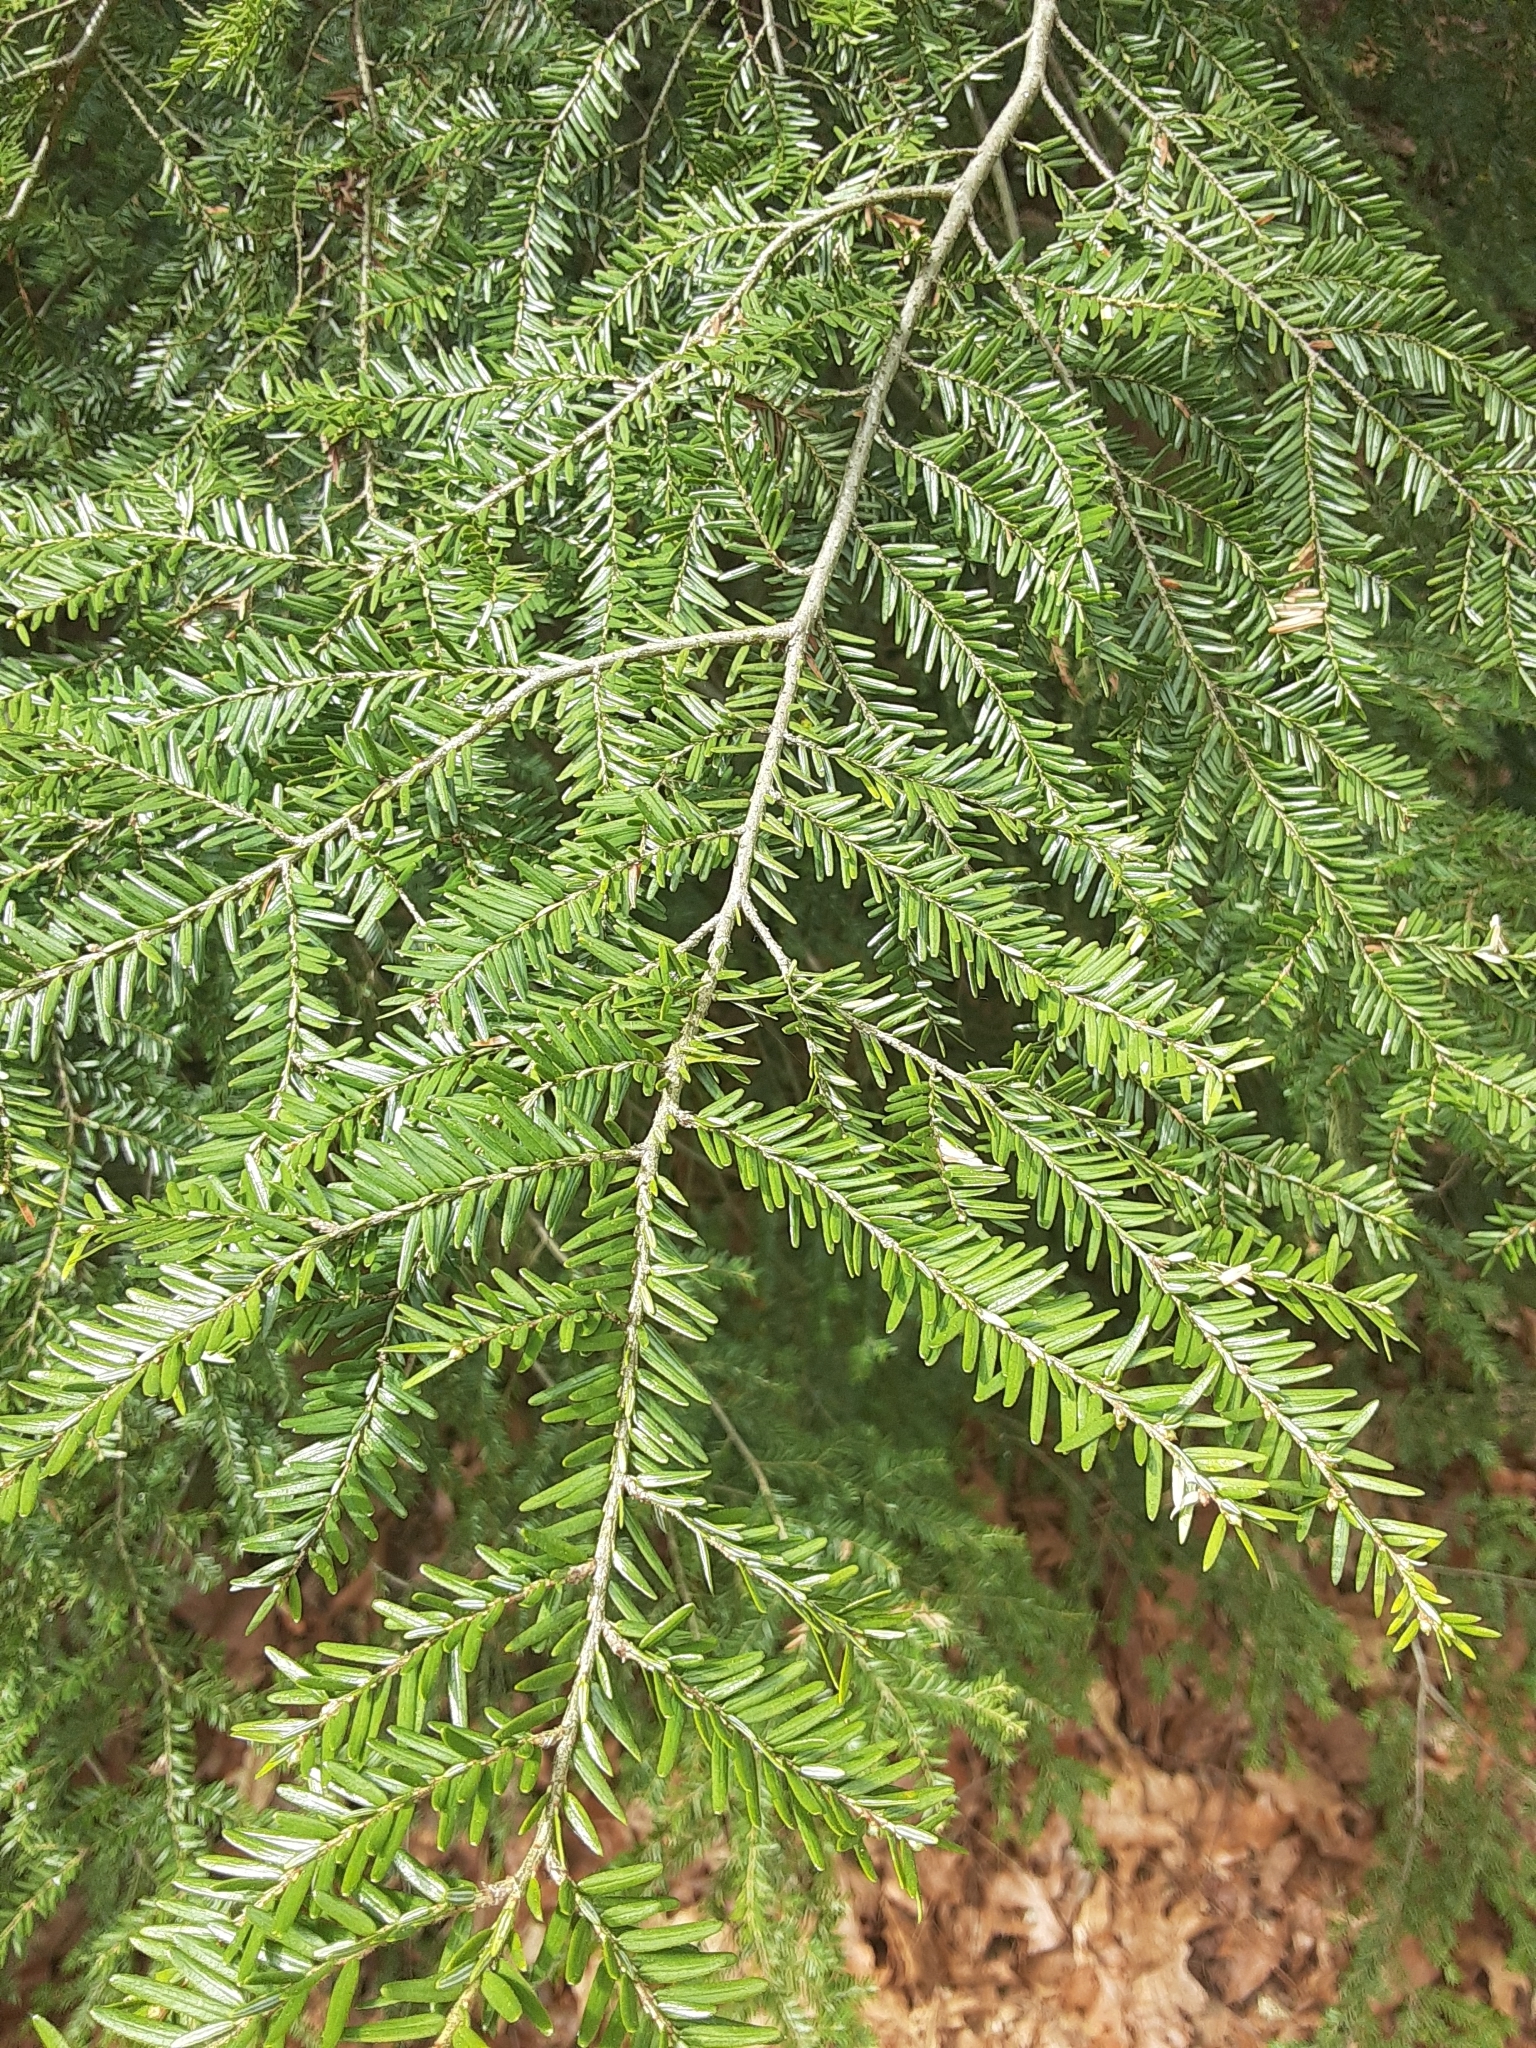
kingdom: Plantae
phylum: Tracheophyta
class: Pinopsida
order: Pinales
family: Pinaceae
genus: Tsuga
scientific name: Tsuga canadensis
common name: Eastern hemlock
